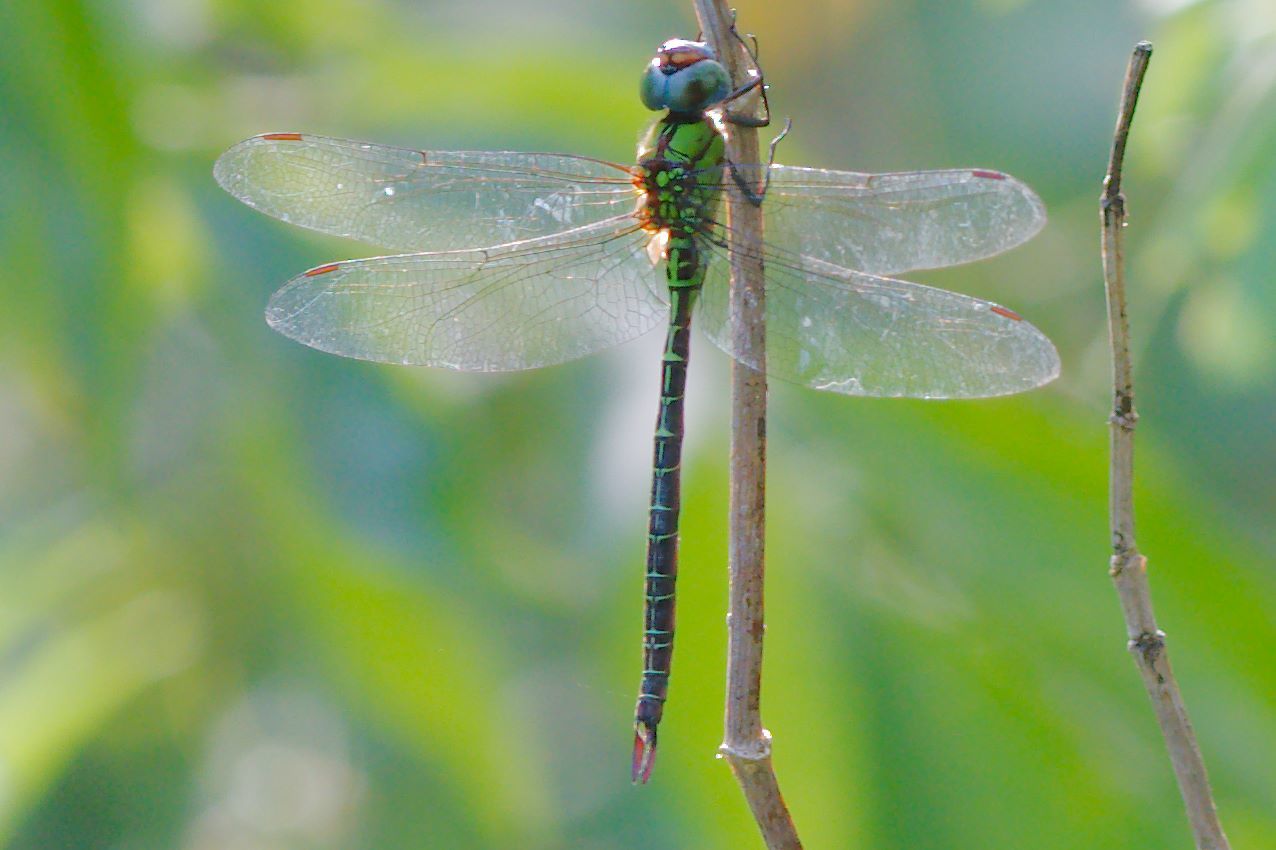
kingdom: Animalia
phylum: Arthropoda
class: Insecta
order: Odonata
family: Aeshnidae
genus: Coryphaeschna
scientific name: Coryphaeschna adnexa
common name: Blue-faced darner
